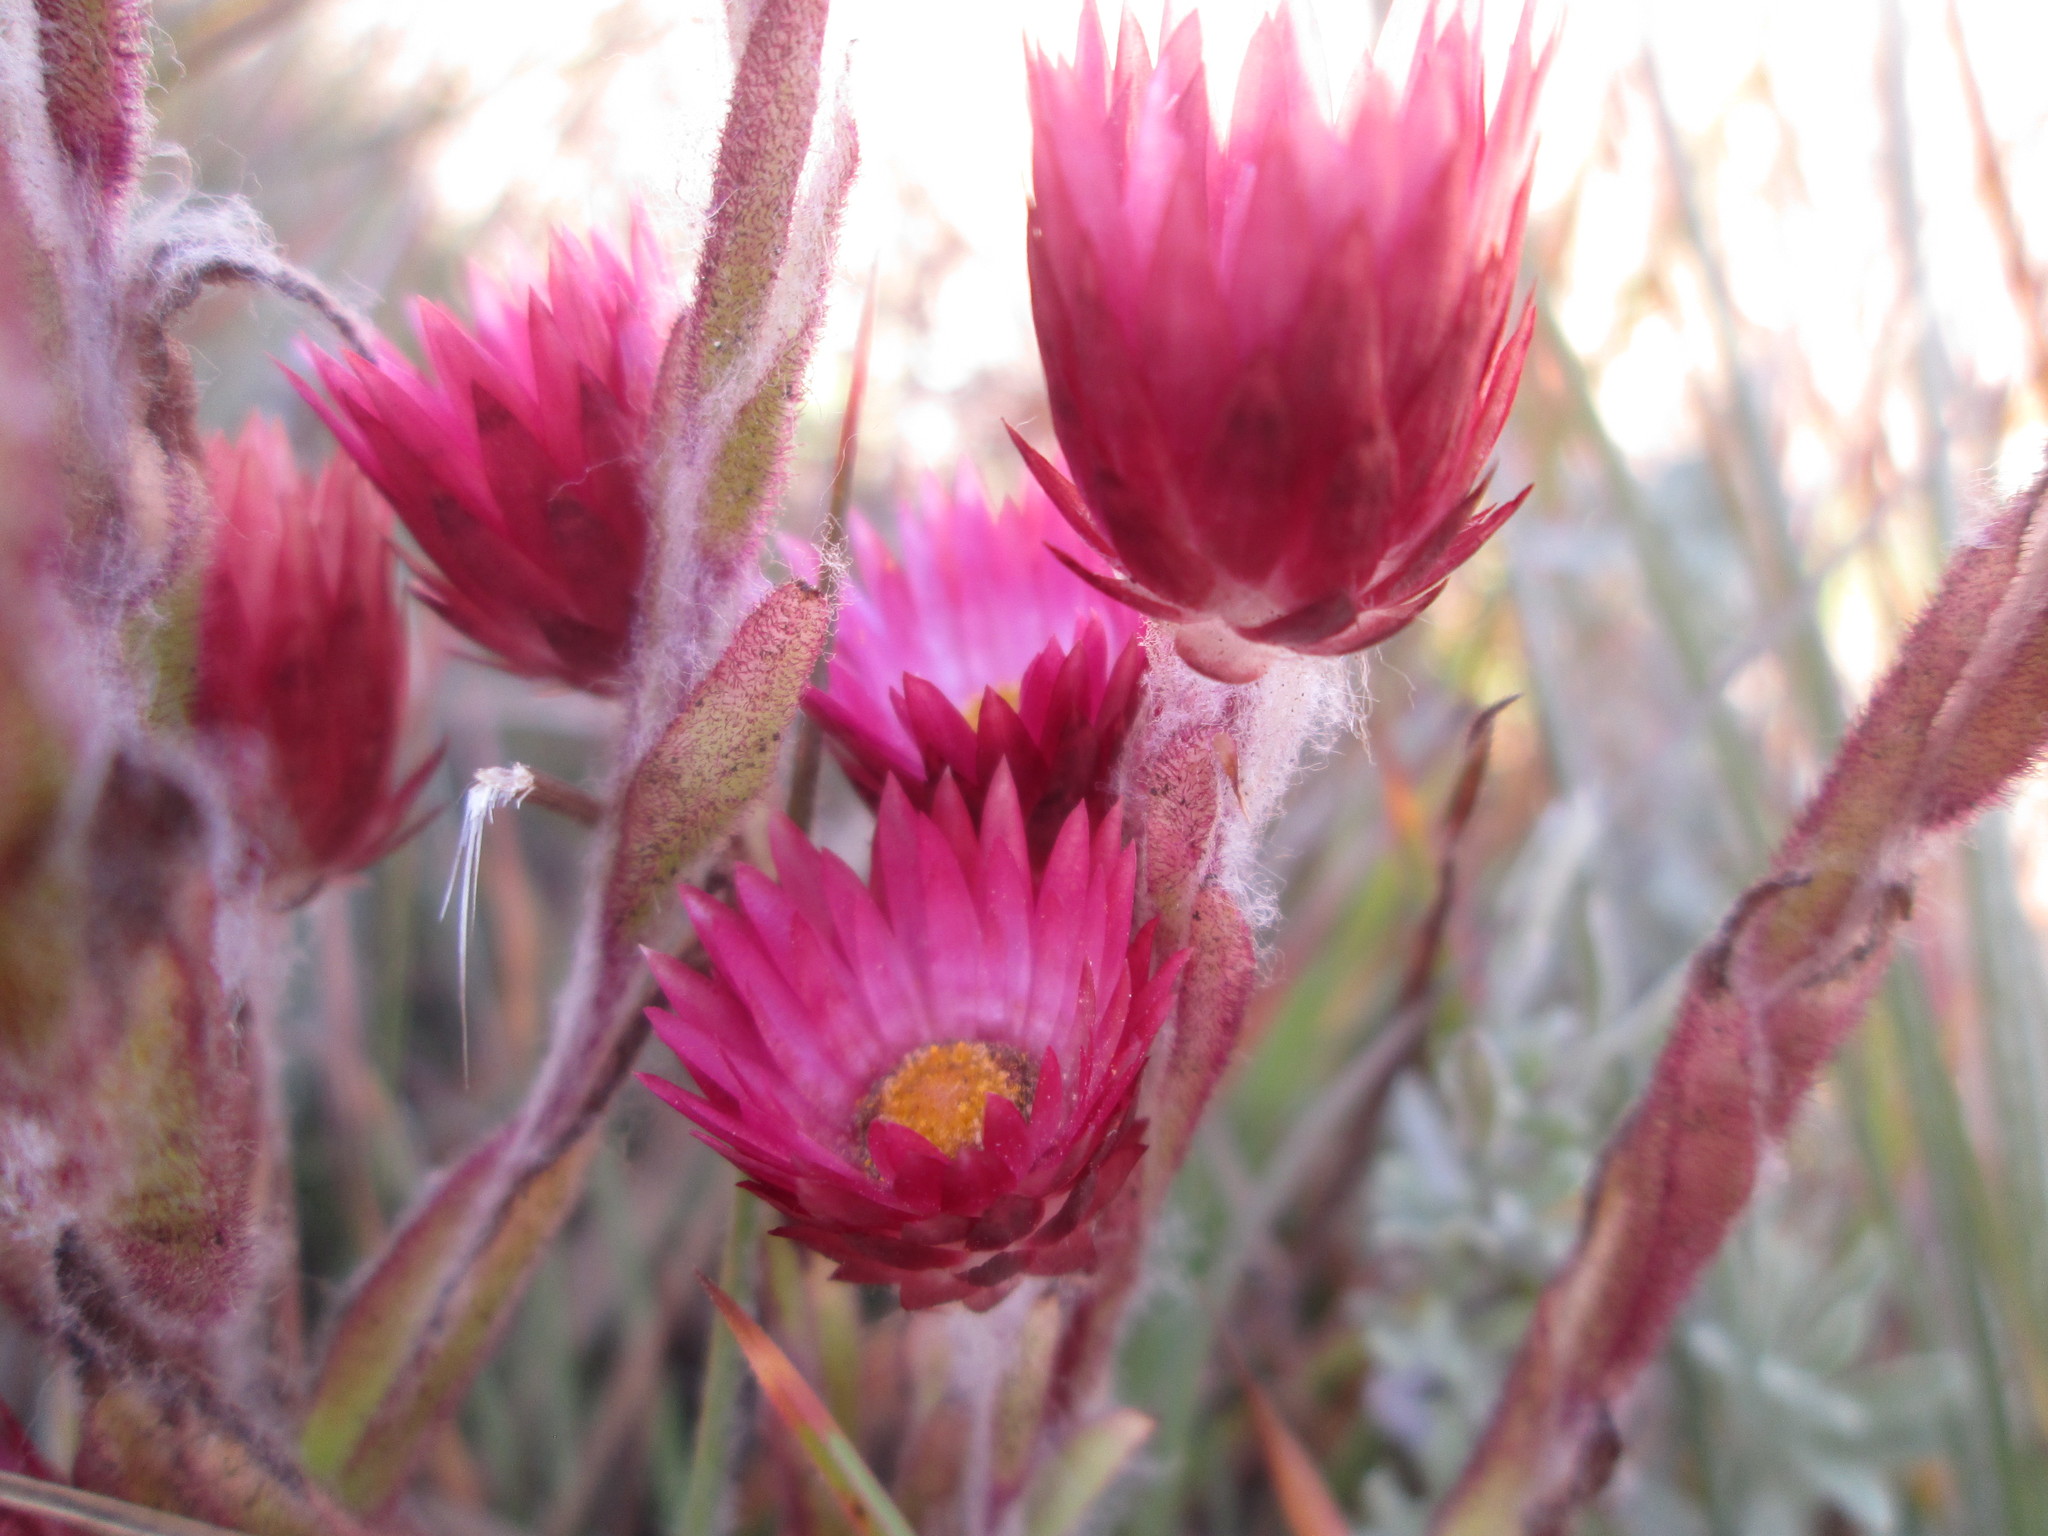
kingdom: Plantae
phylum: Tracheophyta
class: Magnoliopsida
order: Asterales
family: Asteraceae
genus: Helichrysum
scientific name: Helichrysum ecklonis
